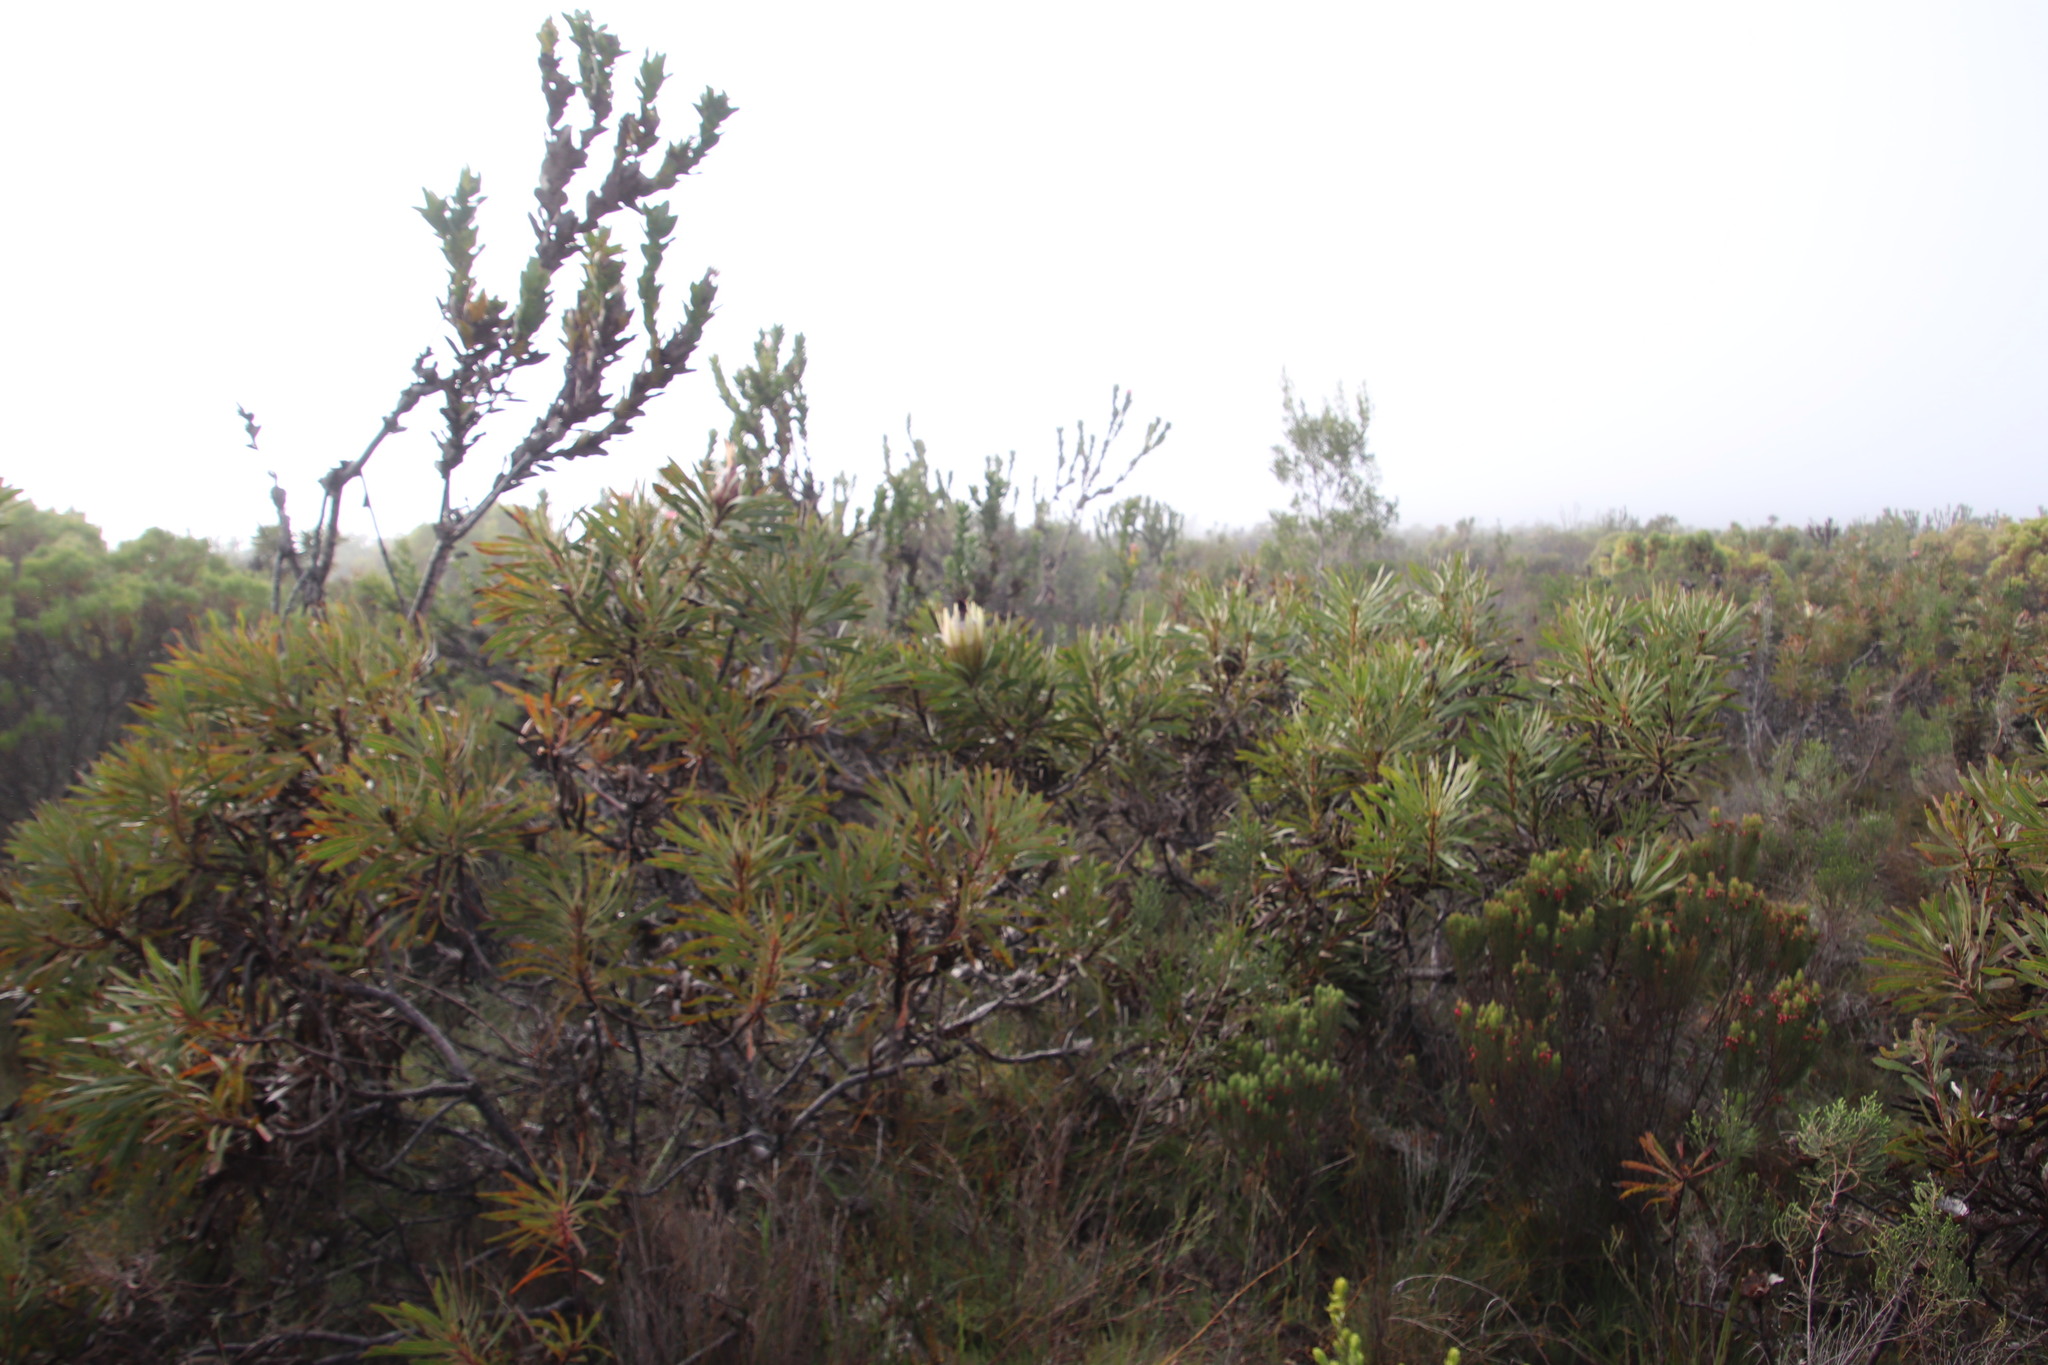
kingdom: Plantae
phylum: Tracheophyta
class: Magnoliopsida
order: Proteales
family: Proteaceae
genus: Protea
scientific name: Protea longifolia
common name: Long-leaf sugarbush
